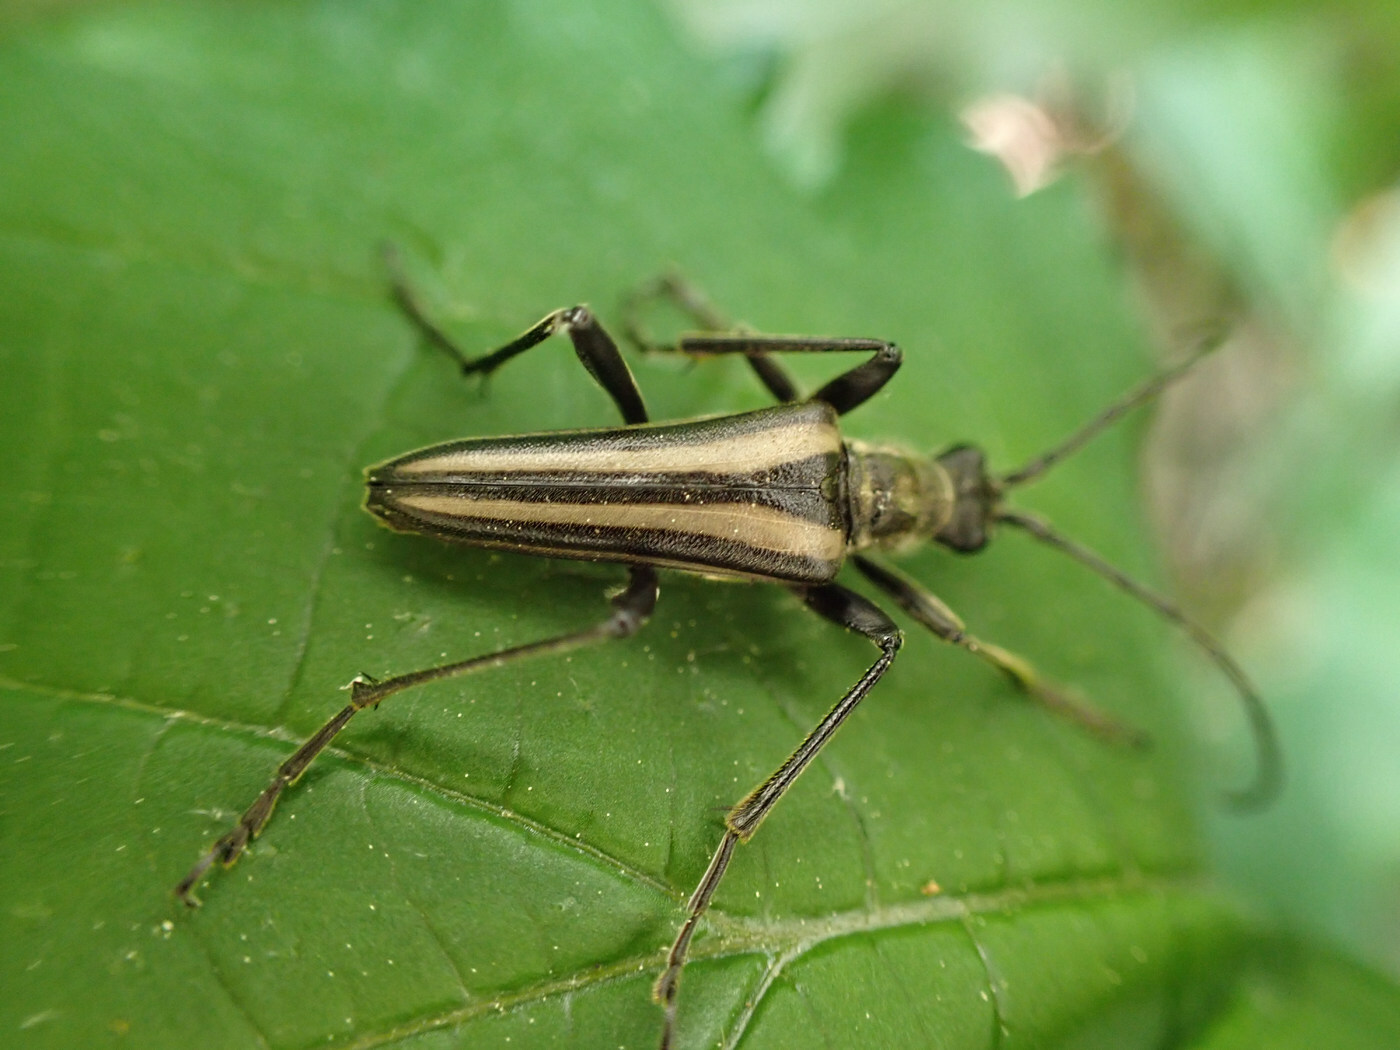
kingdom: Animalia
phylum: Arthropoda
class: Insecta
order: Coleoptera
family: Cerambycidae
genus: Stenocorus
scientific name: Stenocorus vittiger
